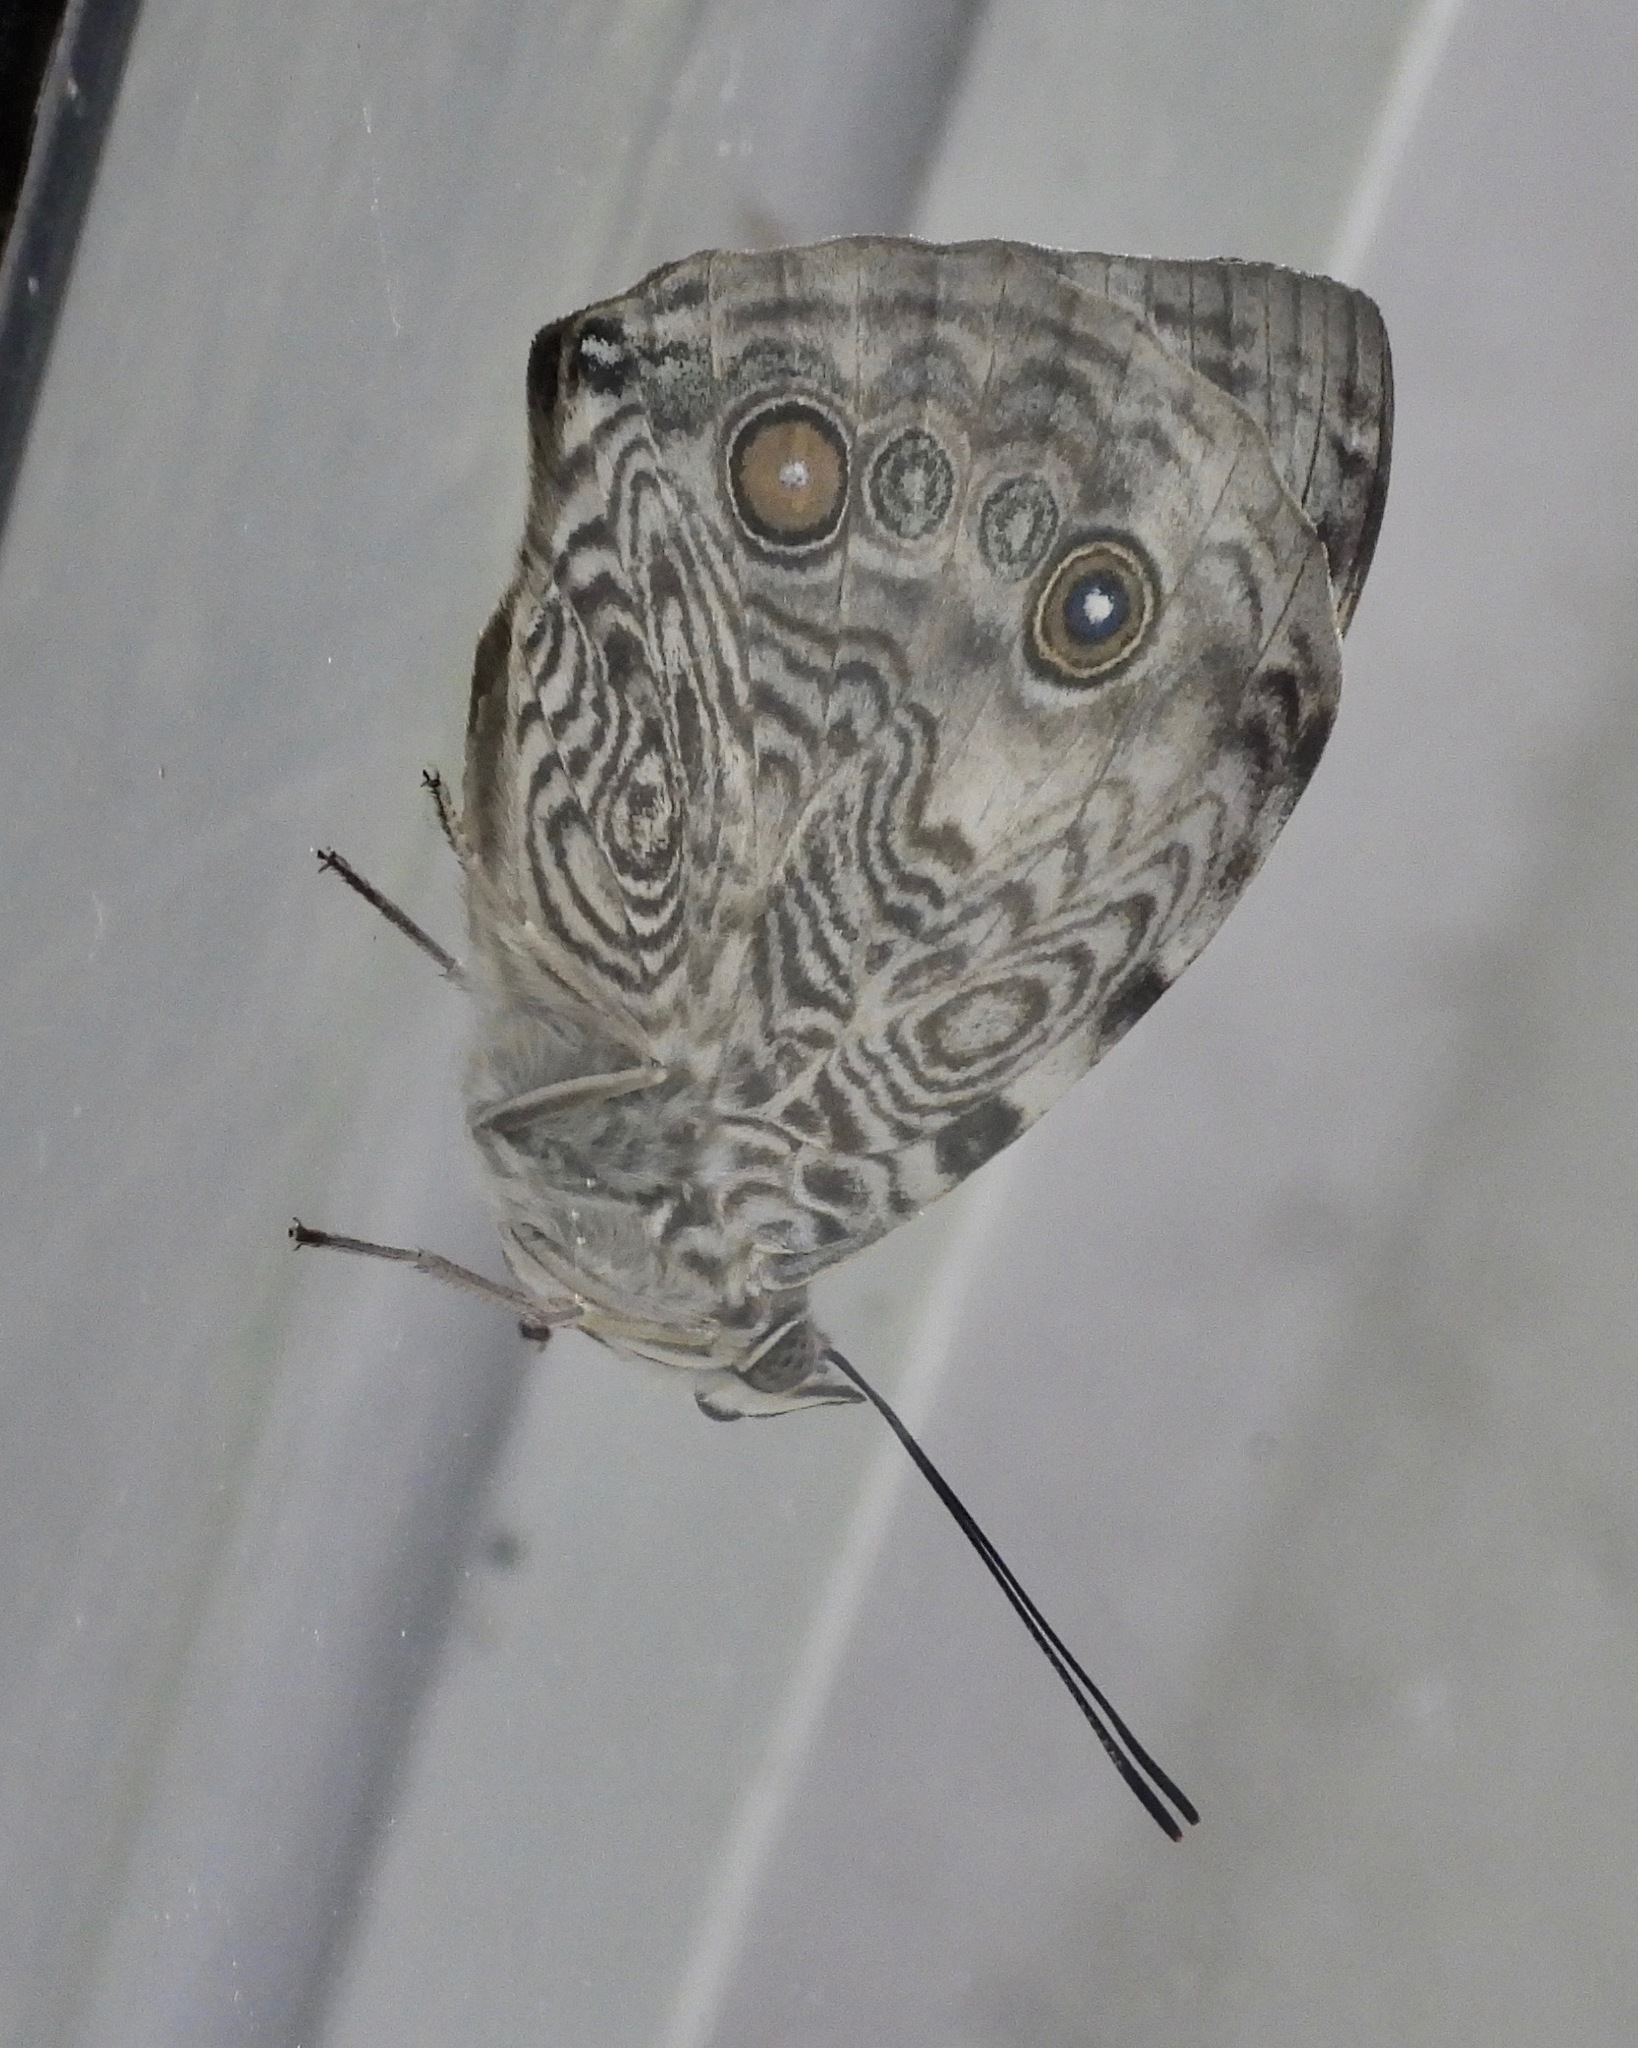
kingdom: Animalia
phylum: Arthropoda
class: Insecta
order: Lepidoptera
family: Nymphalidae
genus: Smyrna
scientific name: Smyrna karwinskii
